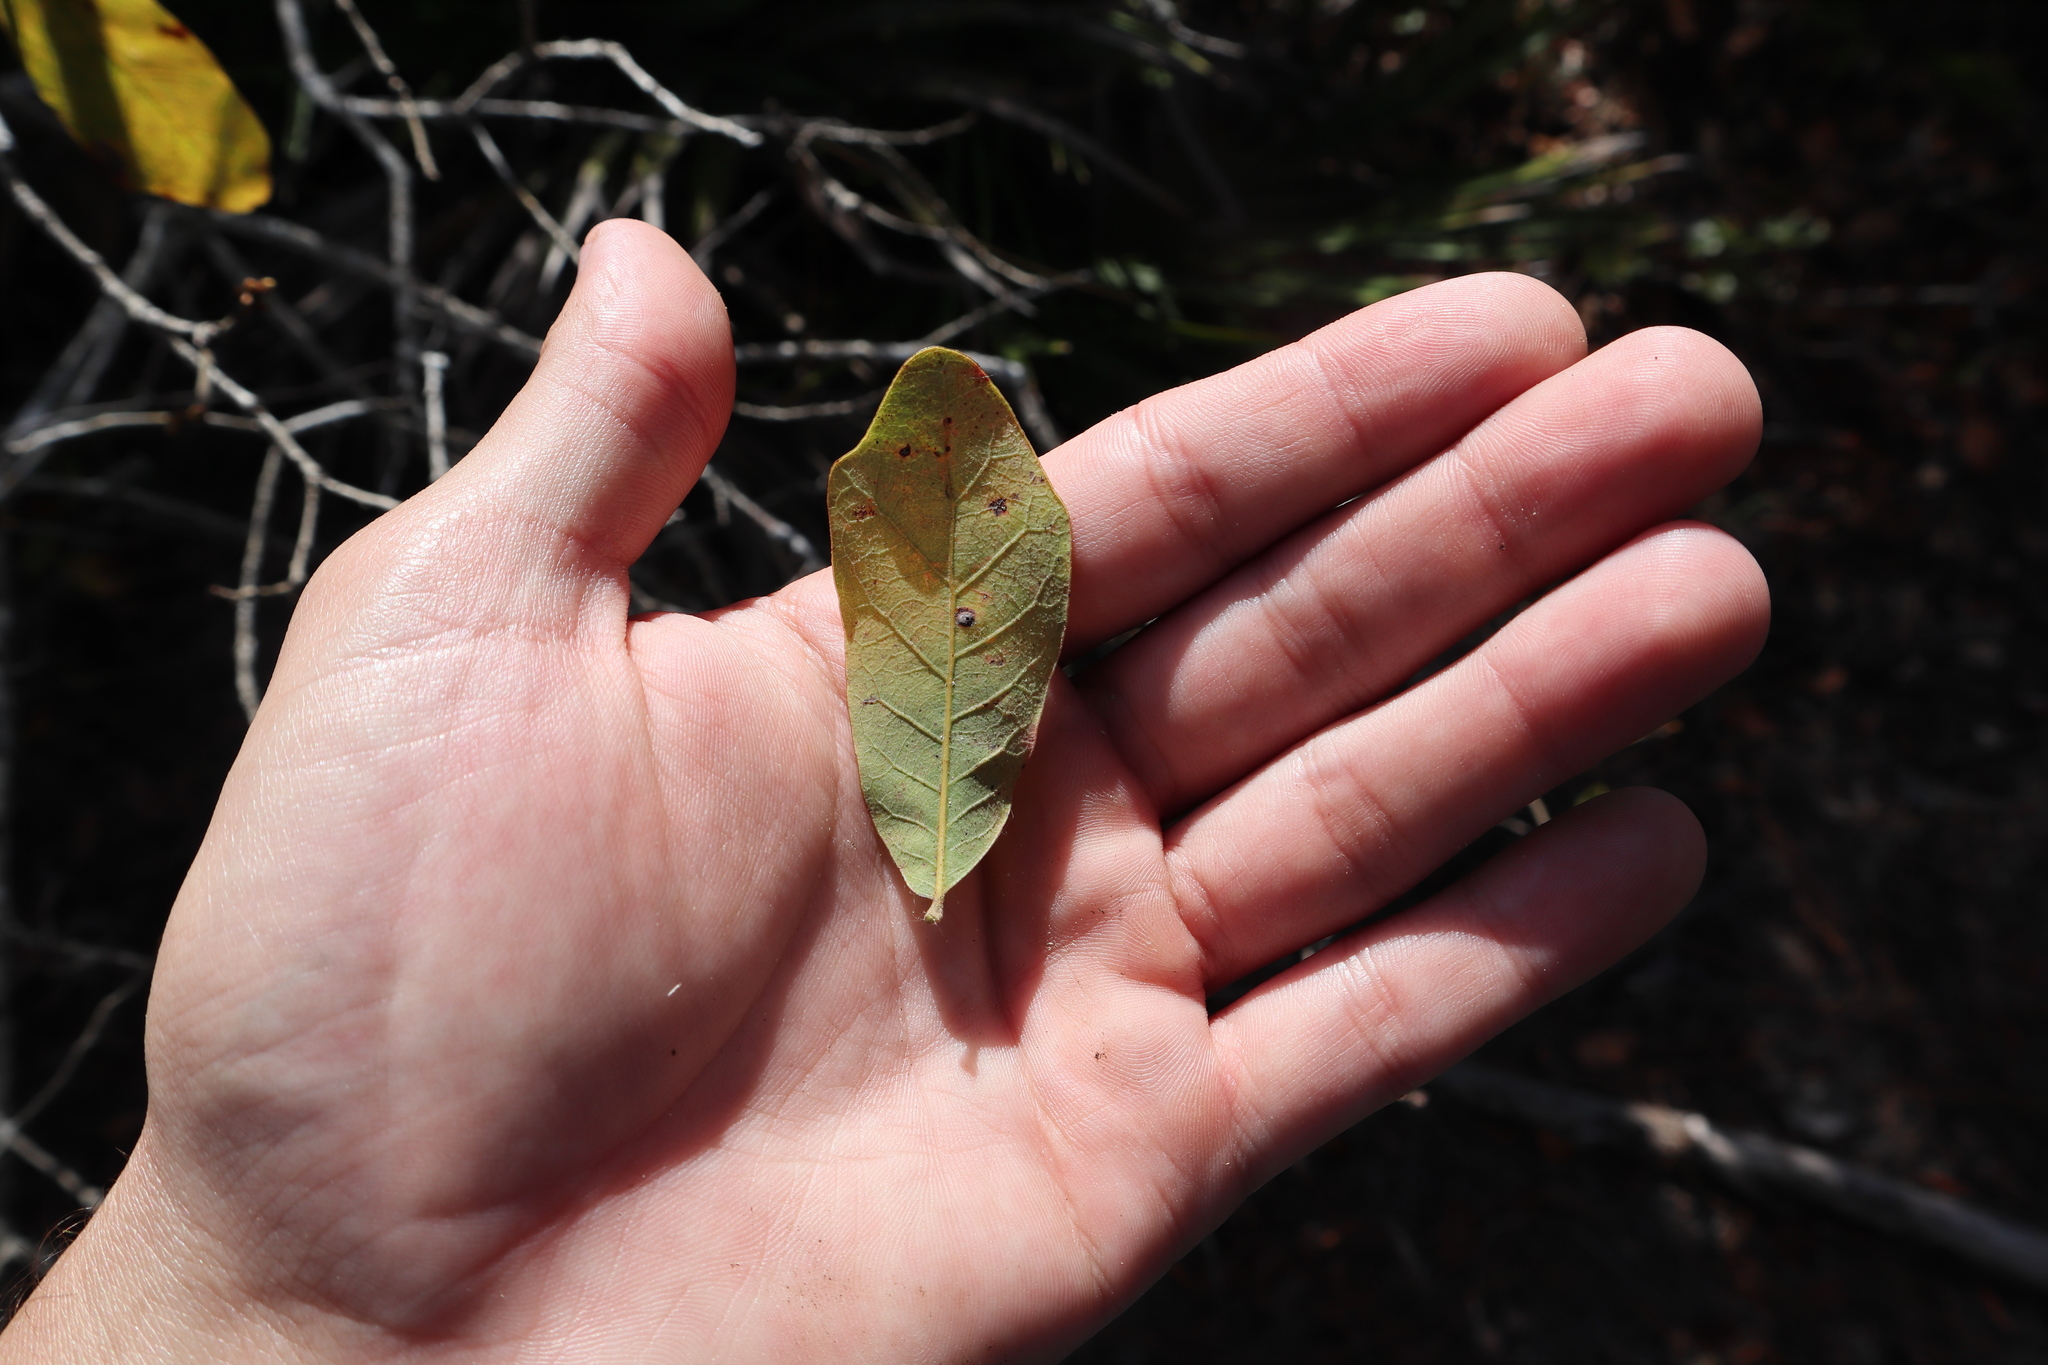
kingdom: Plantae
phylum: Tracheophyta
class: Magnoliopsida
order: Fagales
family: Fagaceae
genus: Quercus
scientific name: Quercus chapmanii
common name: Chapman oak
